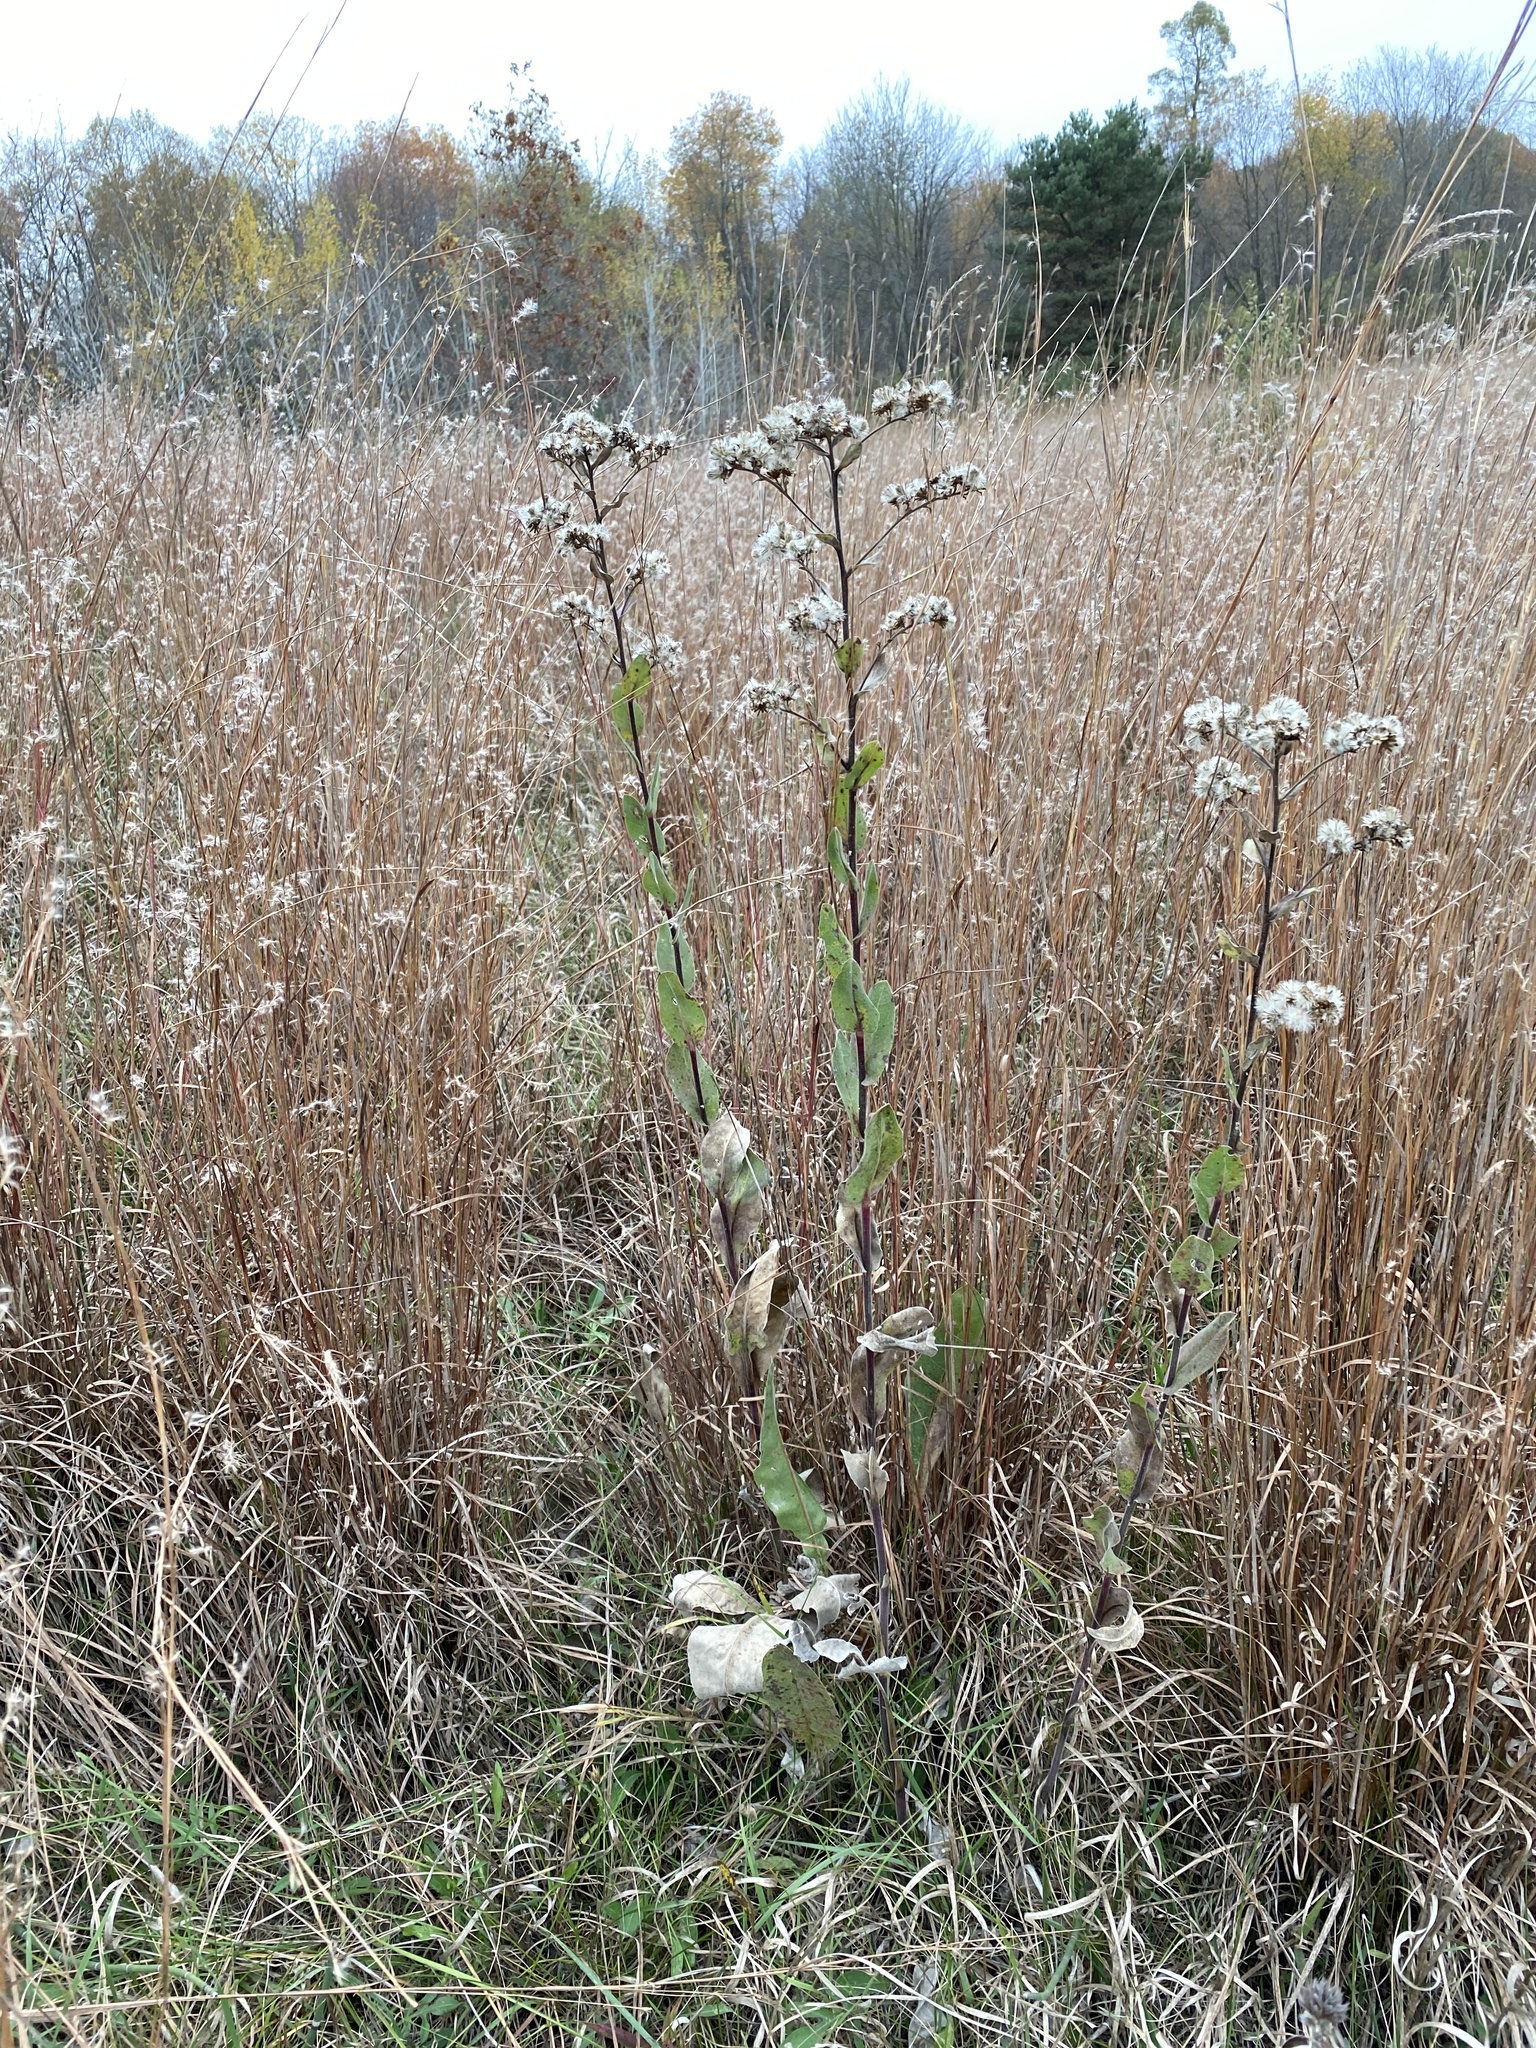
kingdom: Plantae
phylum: Tracheophyta
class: Magnoliopsida
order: Asterales
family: Asteraceae
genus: Solidago
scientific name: Solidago rigida
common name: Rigid goldenrod
